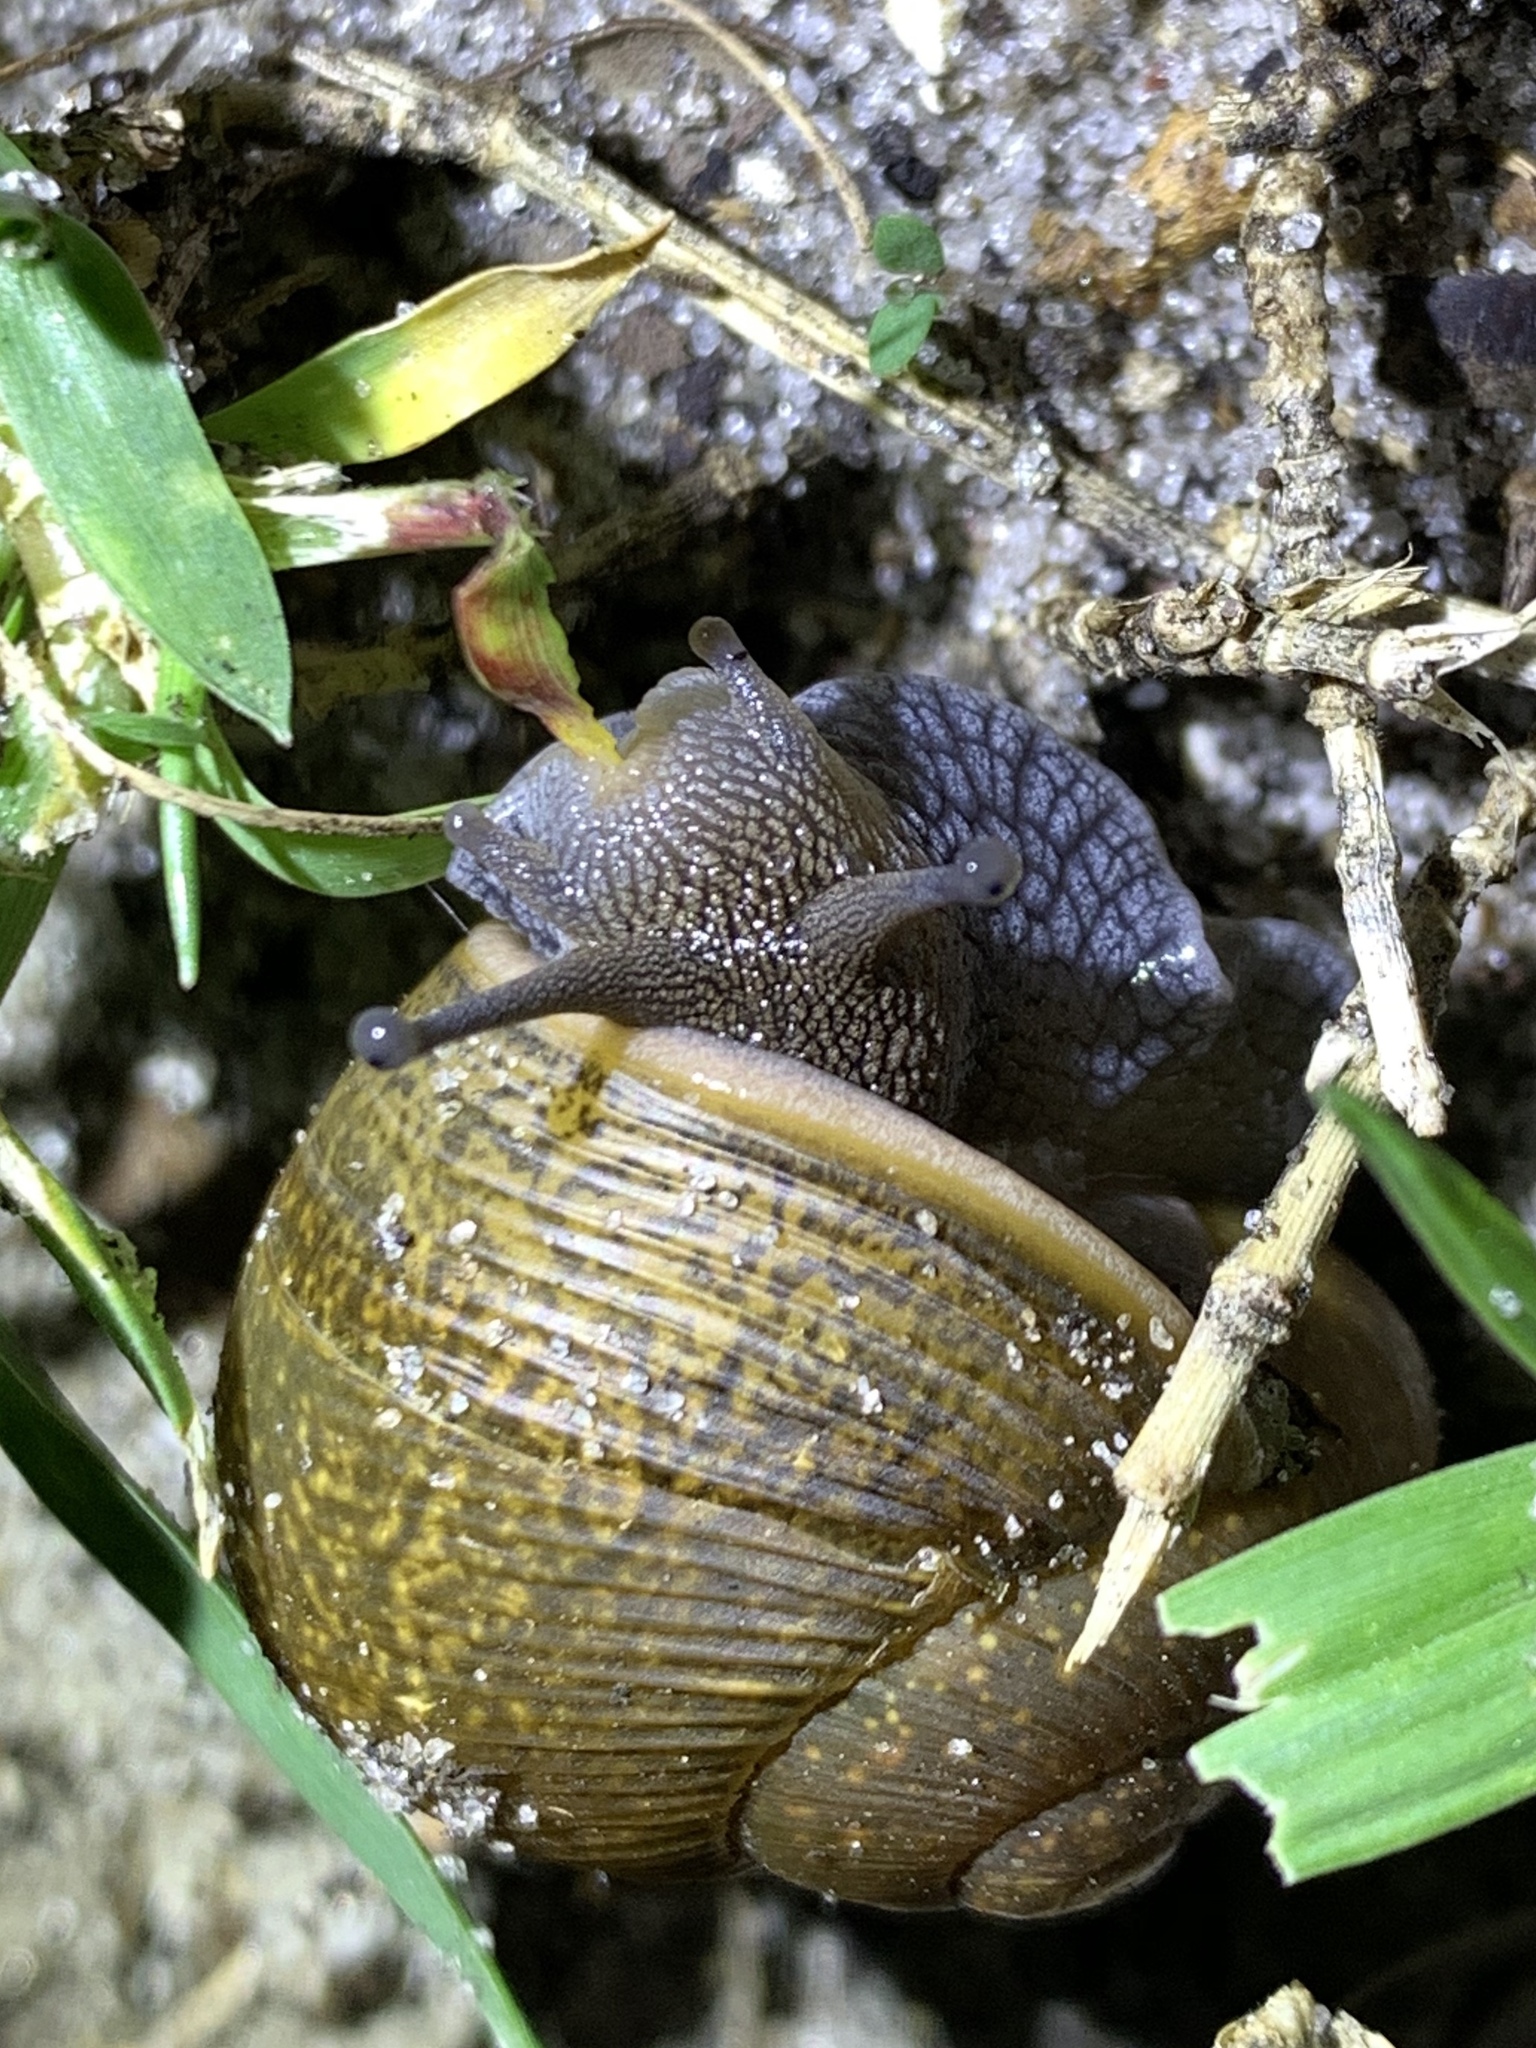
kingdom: Animalia
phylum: Mollusca
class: Gastropoda
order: Stylommatophora
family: Zachrysiidae
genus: Zachrysia
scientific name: Zachrysia provisoria
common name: Garden zachrysia
